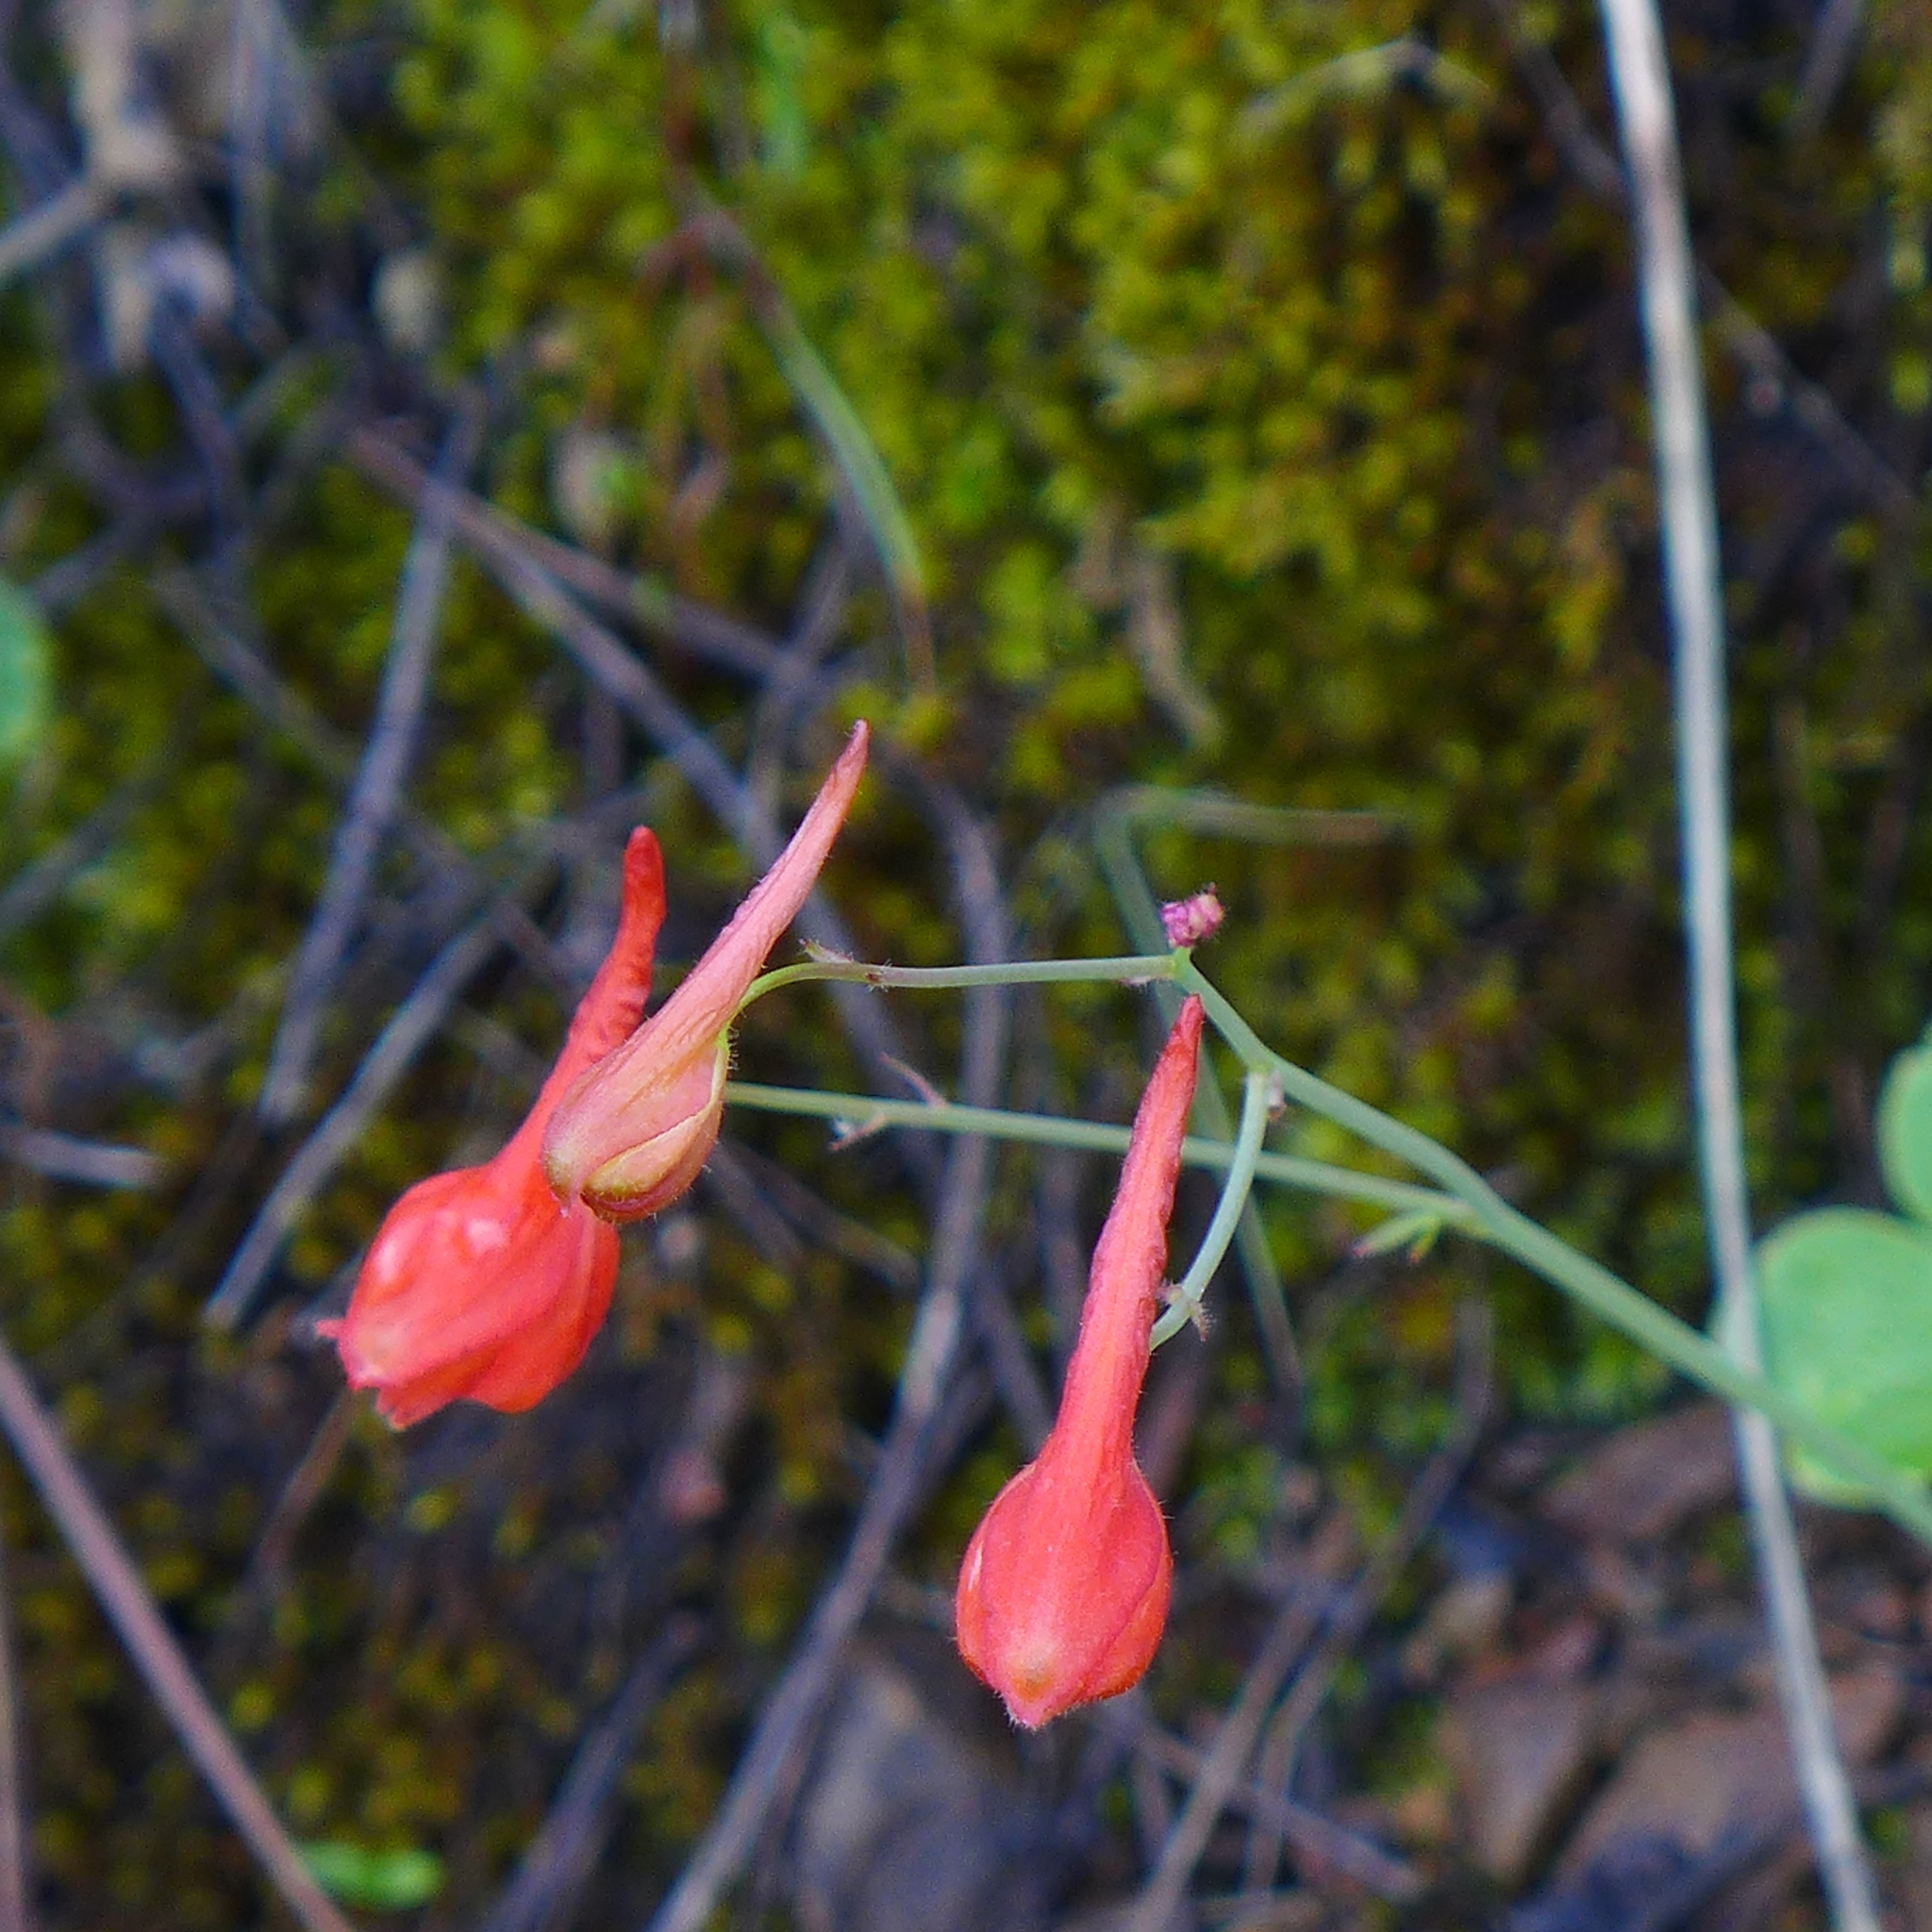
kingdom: Plantae
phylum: Tracheophyta
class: Magnoliopsida
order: Ranunculales
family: Ranunculaceae
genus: Delphinium
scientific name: Delphinium nudicaule
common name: Red larkspur
